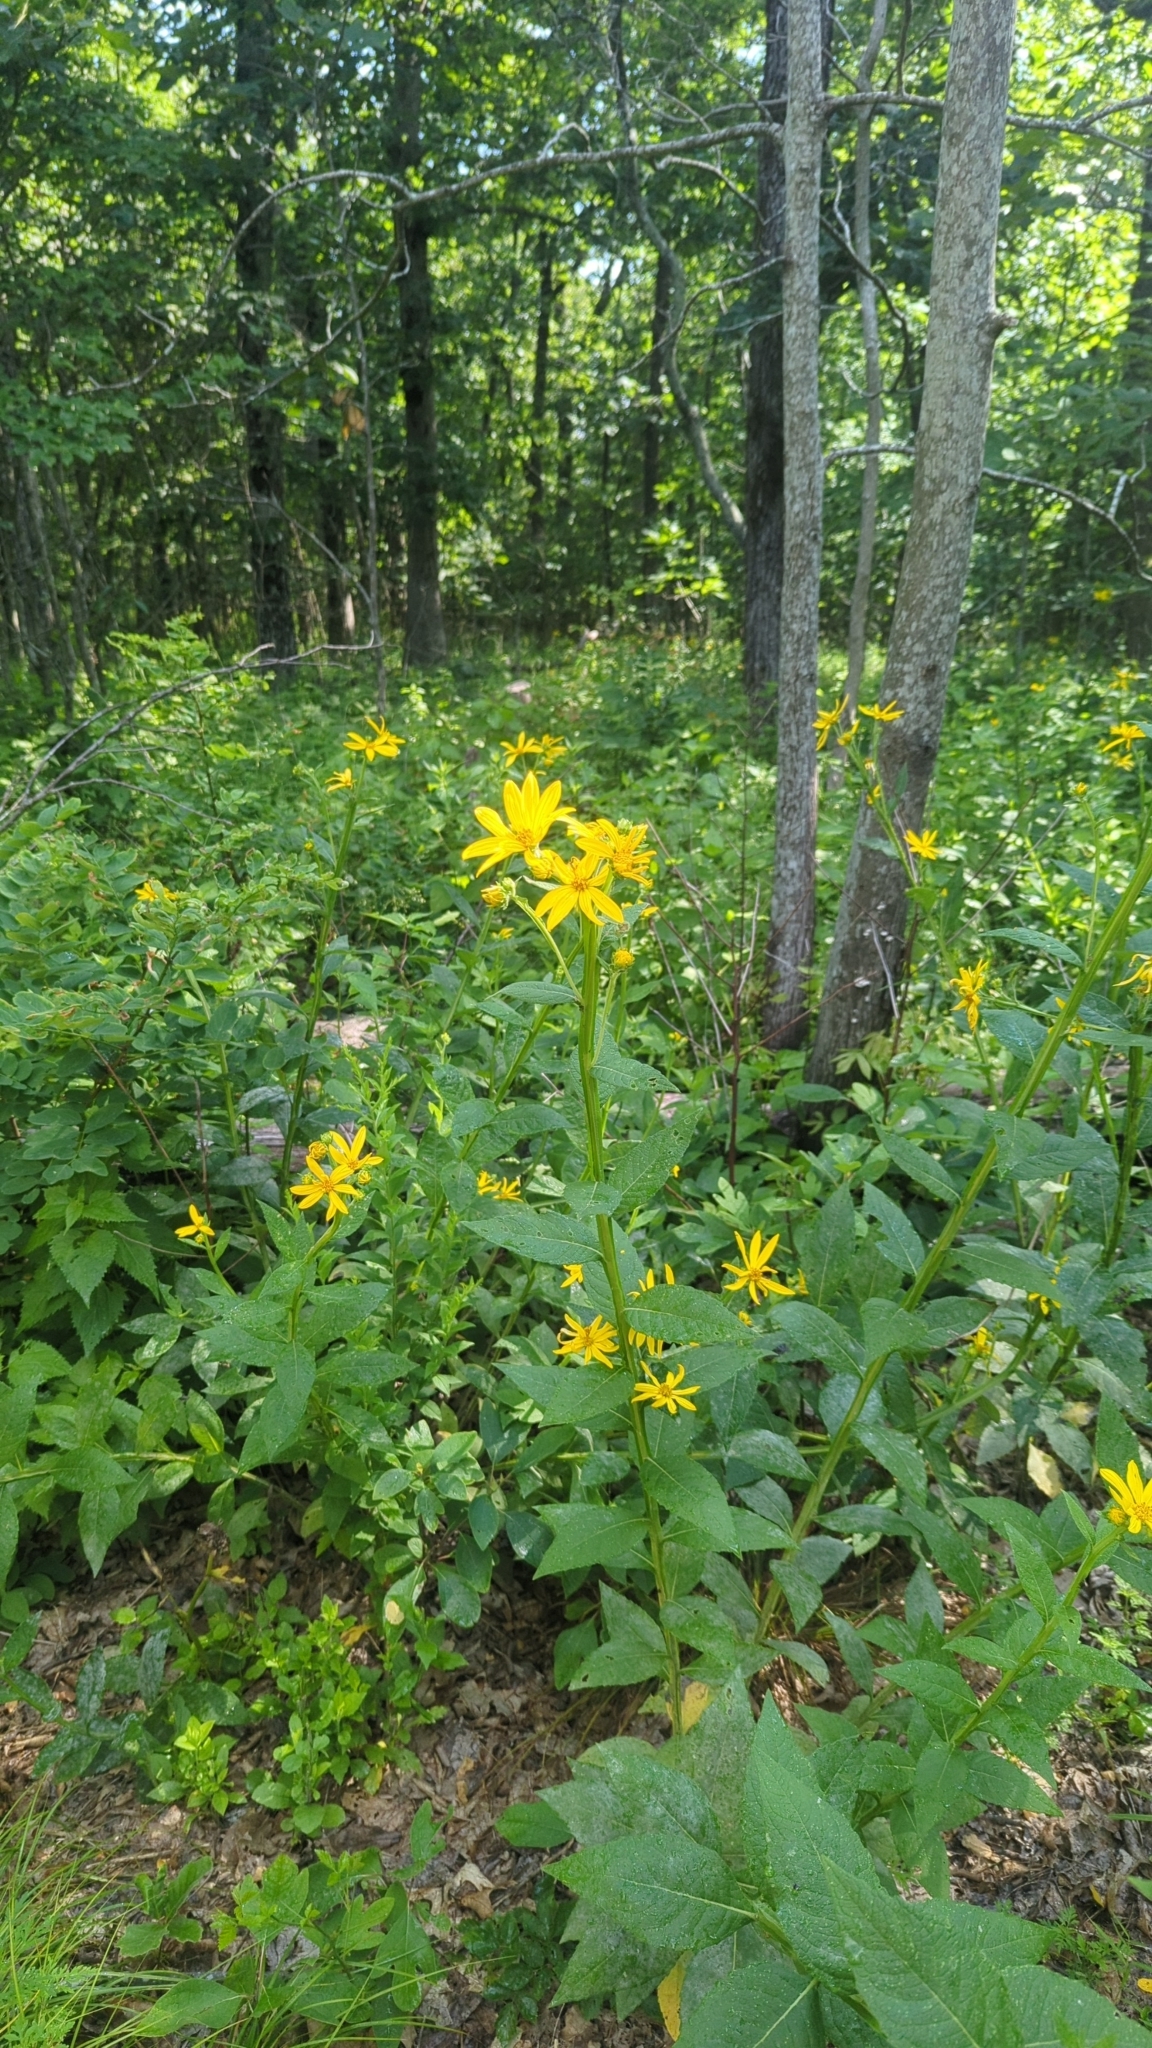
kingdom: Plantae
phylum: Tracheophyta
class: Magnoliopsida
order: Asterales
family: Asteraceae
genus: Verbesina
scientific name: Verbesina helianthoides
